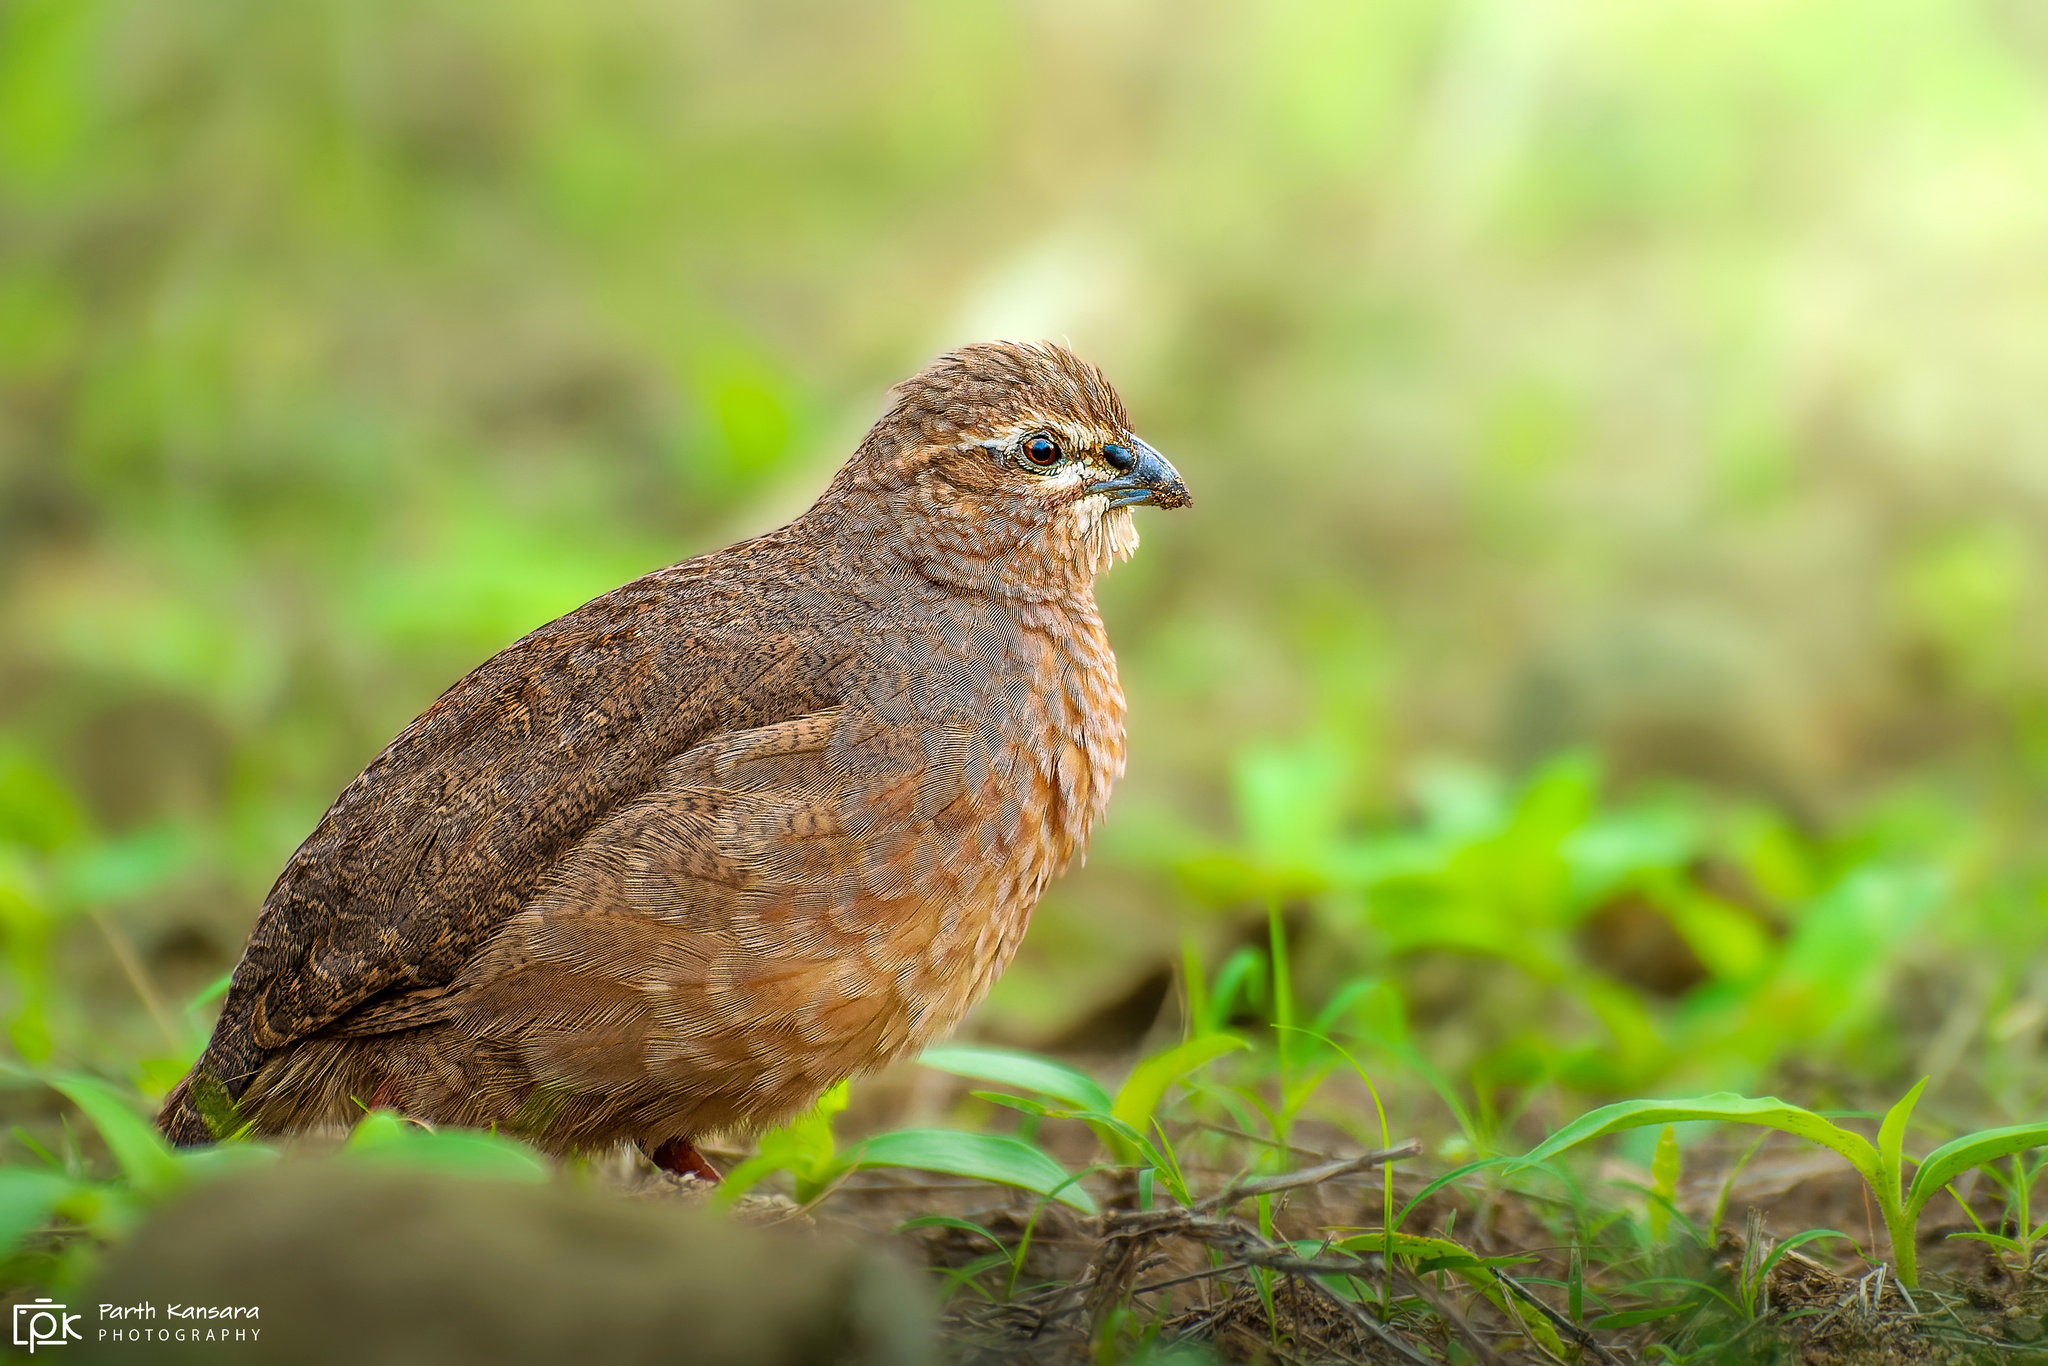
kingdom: Animalia
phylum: Chordata
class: Aves
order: Galliformes
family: Phasianidae
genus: Perdicula
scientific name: Perdicula argoondah
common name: Rock bush-quail
